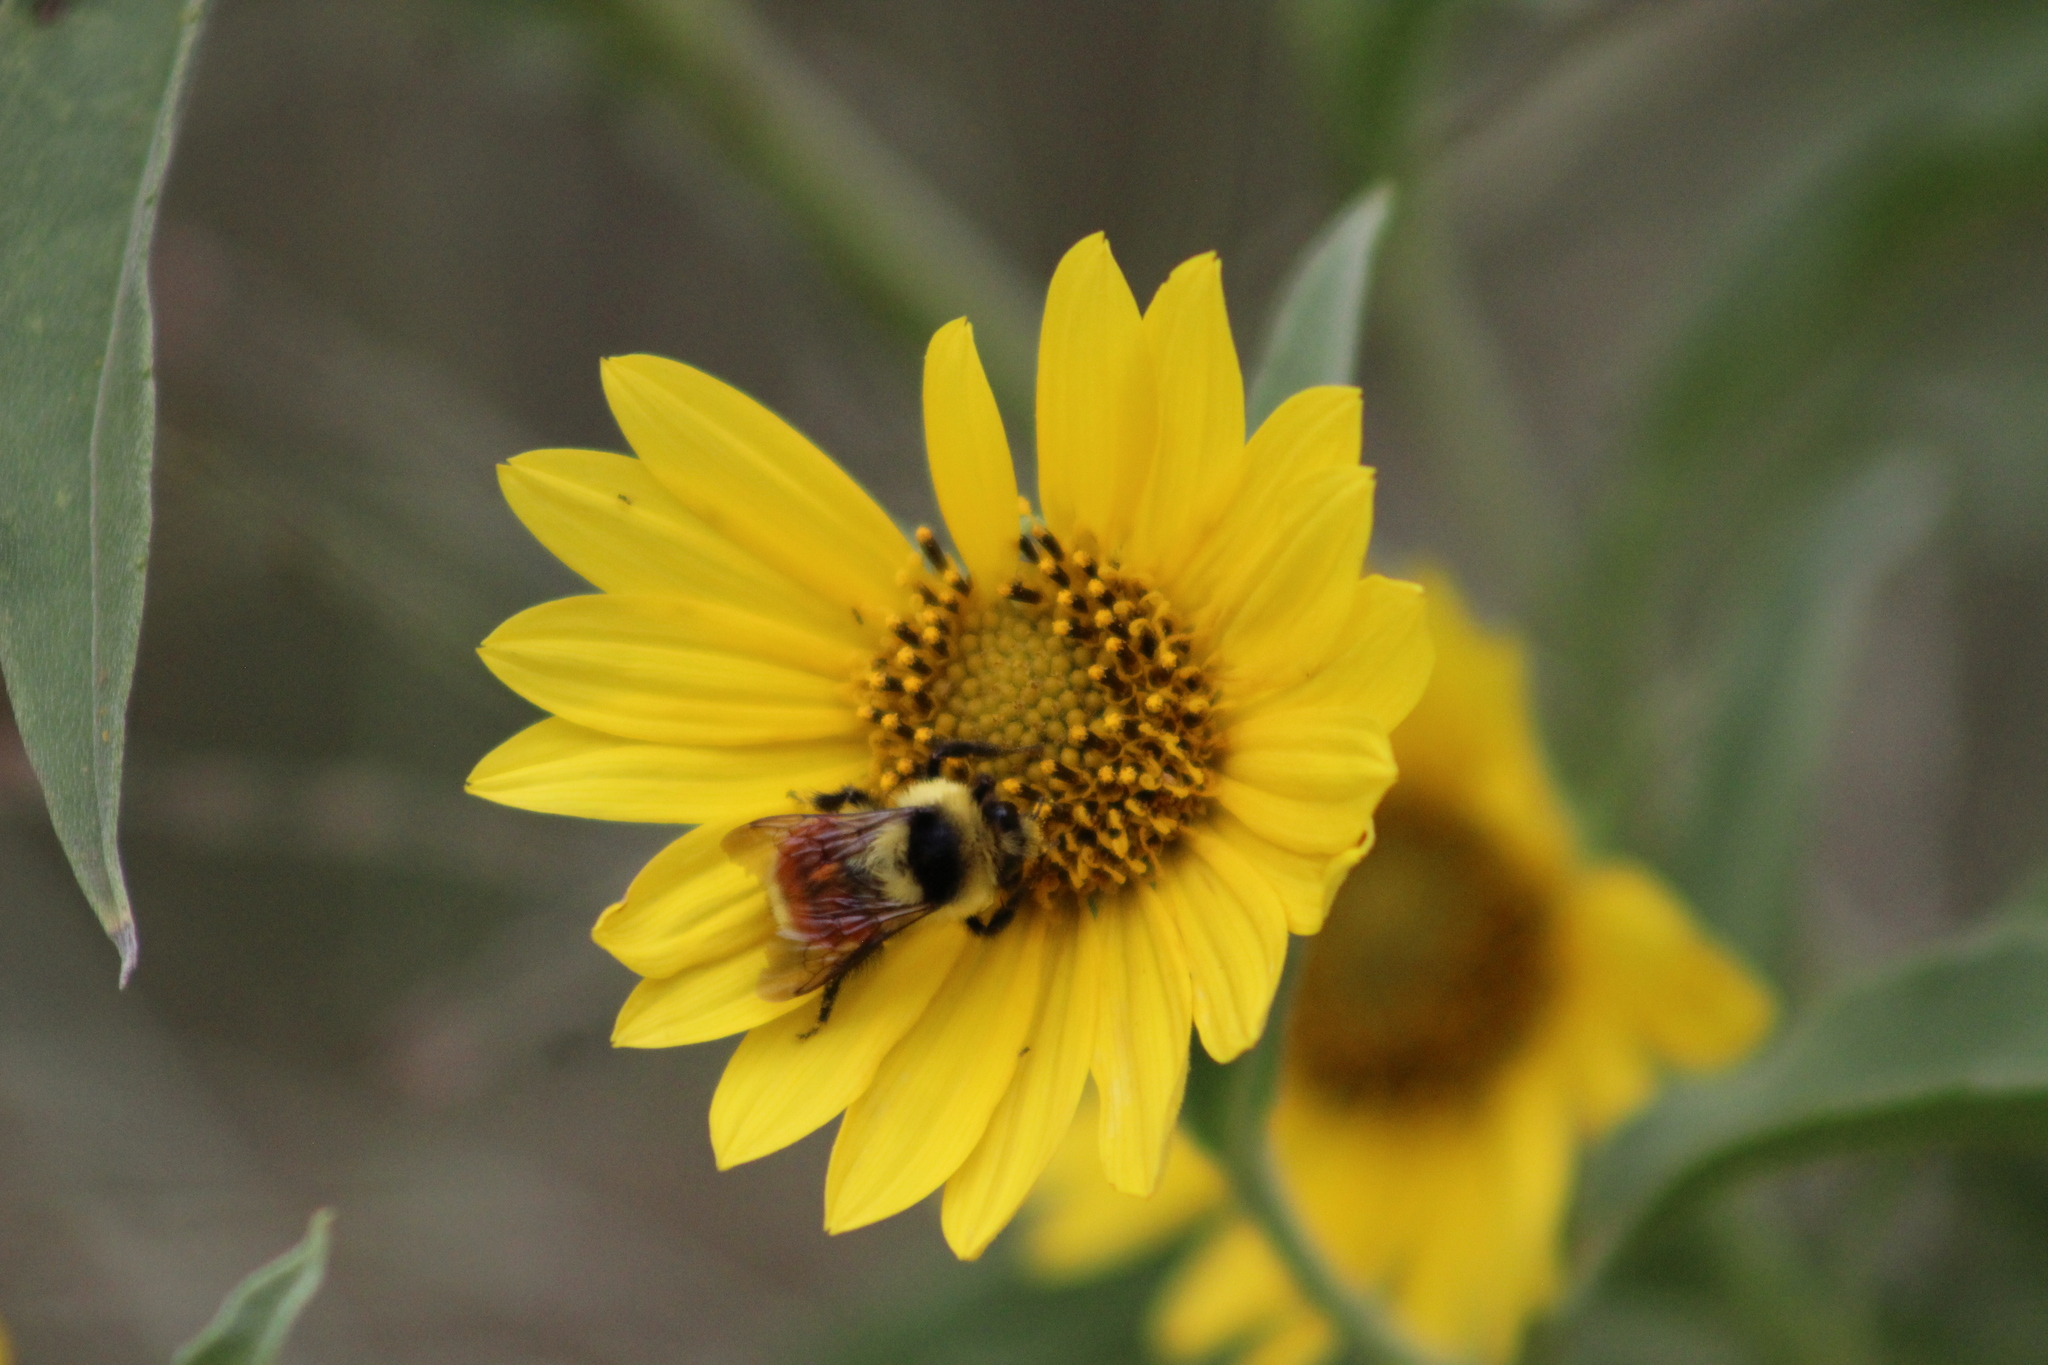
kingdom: Animalia
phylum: Arthropoda
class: Insecta
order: Hymenoptera
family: Apidae
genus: Bombus
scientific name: Bombus huntii
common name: Hunt bumble bee
